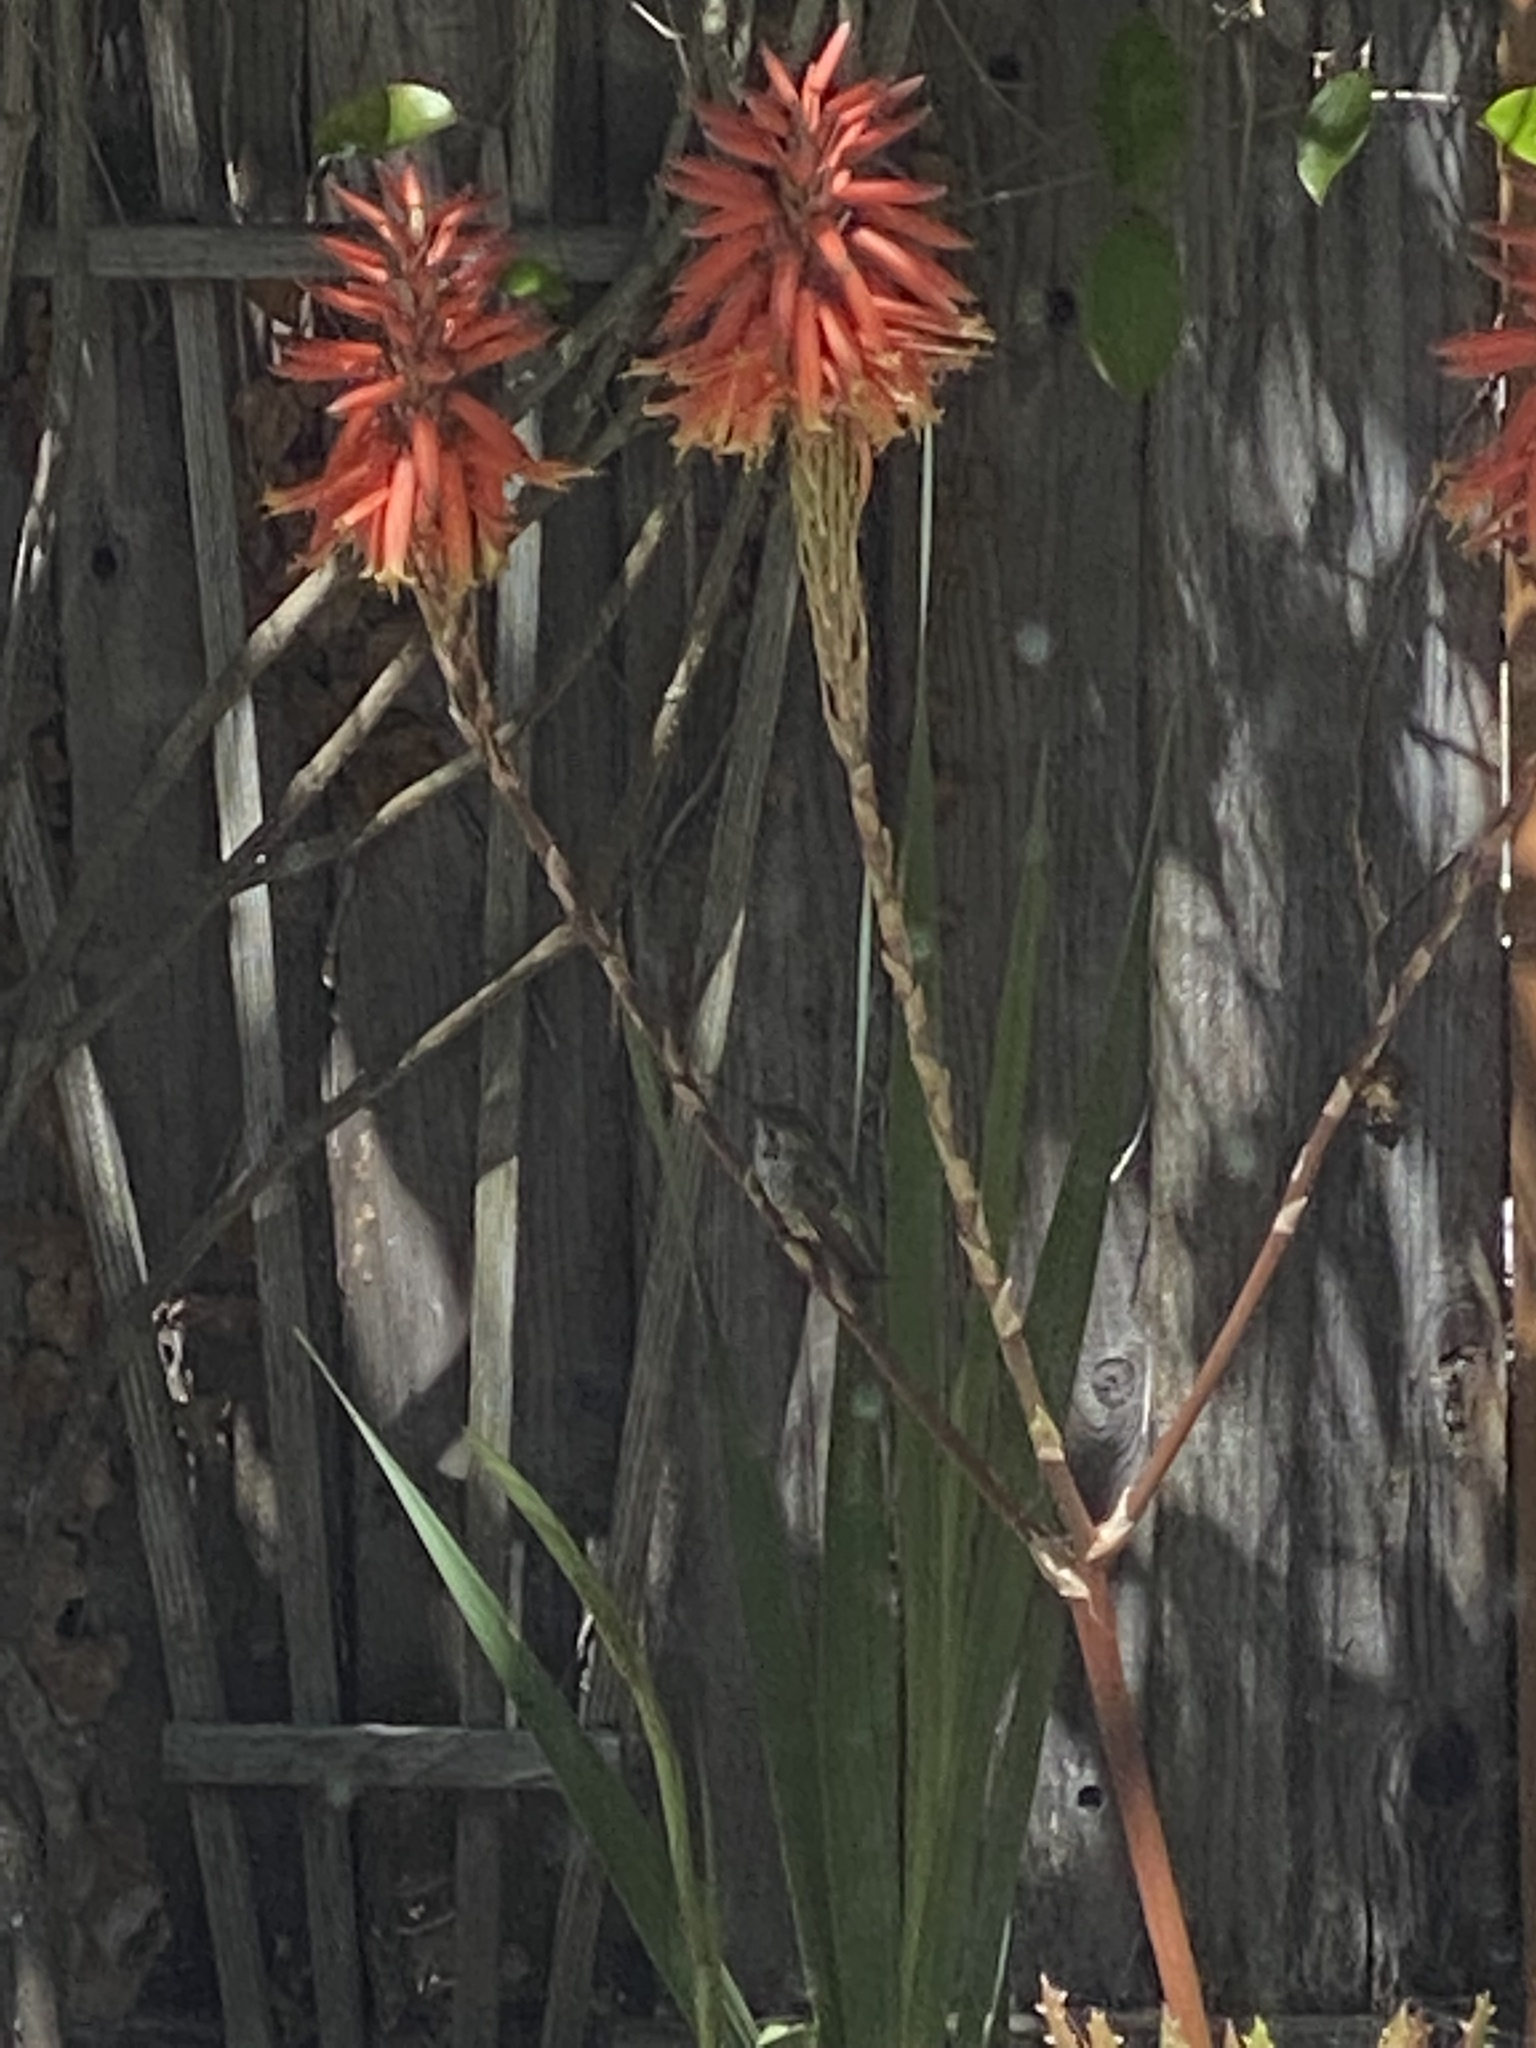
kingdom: Animalia
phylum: Chordata
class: Aves
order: Apodiformes
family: Trochilidae
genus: Calypte
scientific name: Calypte anna
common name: Anna's hummingbird
